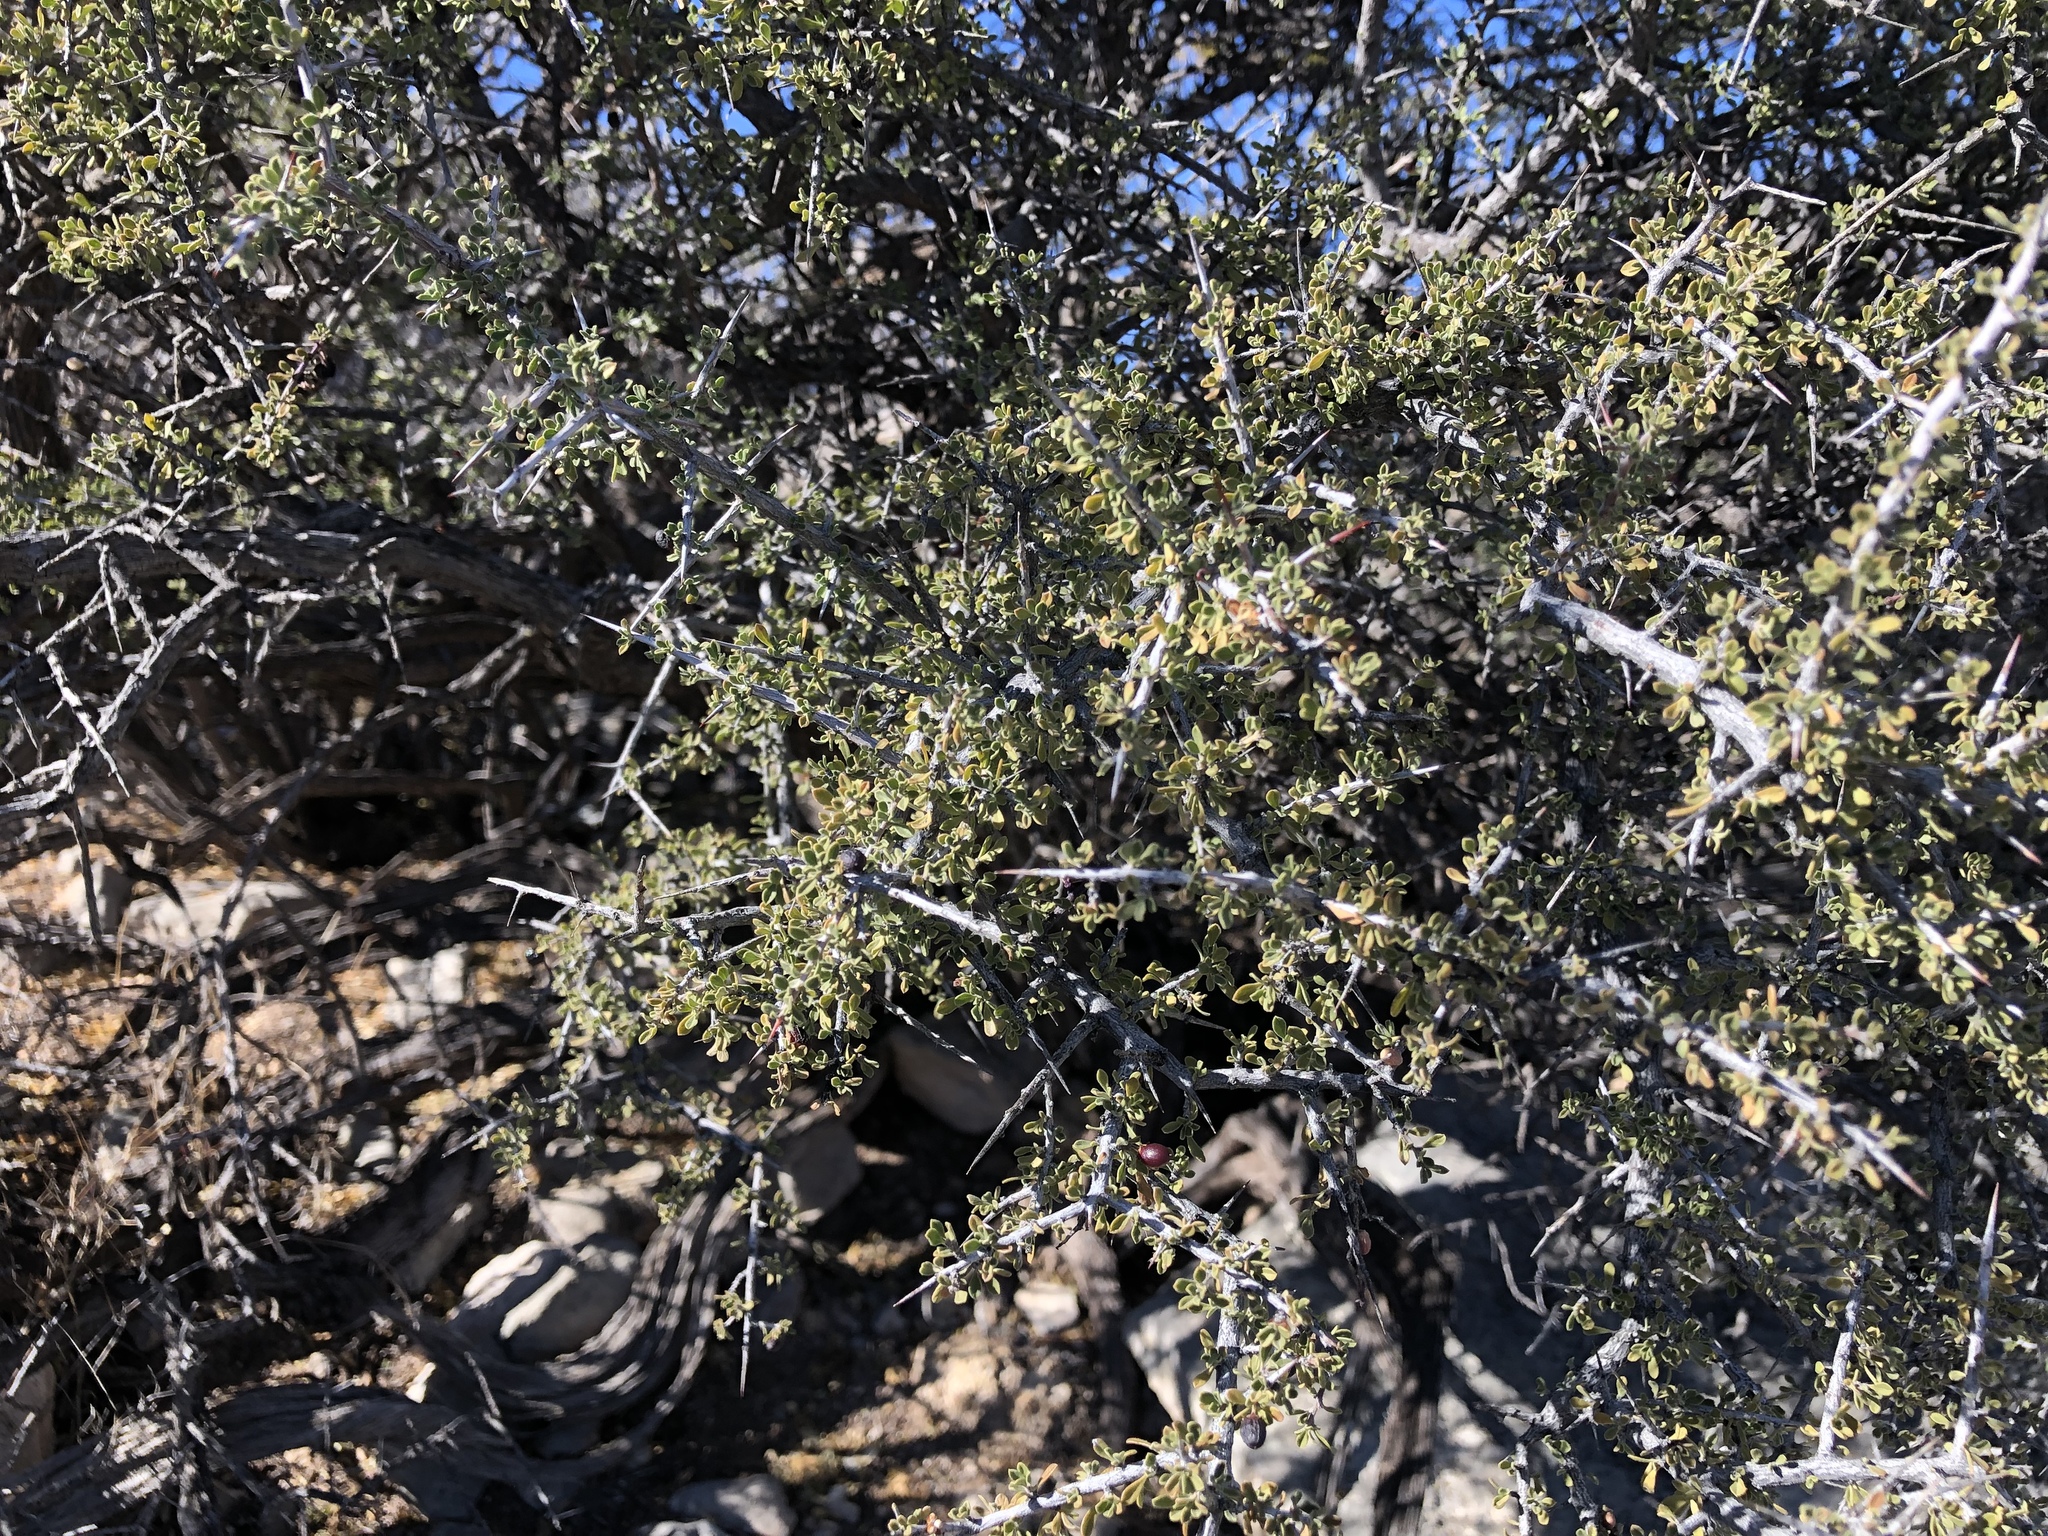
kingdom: Plantae
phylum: Tracheophyta
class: Magnoliopsida
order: Rosales
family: Rhamnaceae
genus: Condalia
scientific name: Condalia warnockii
